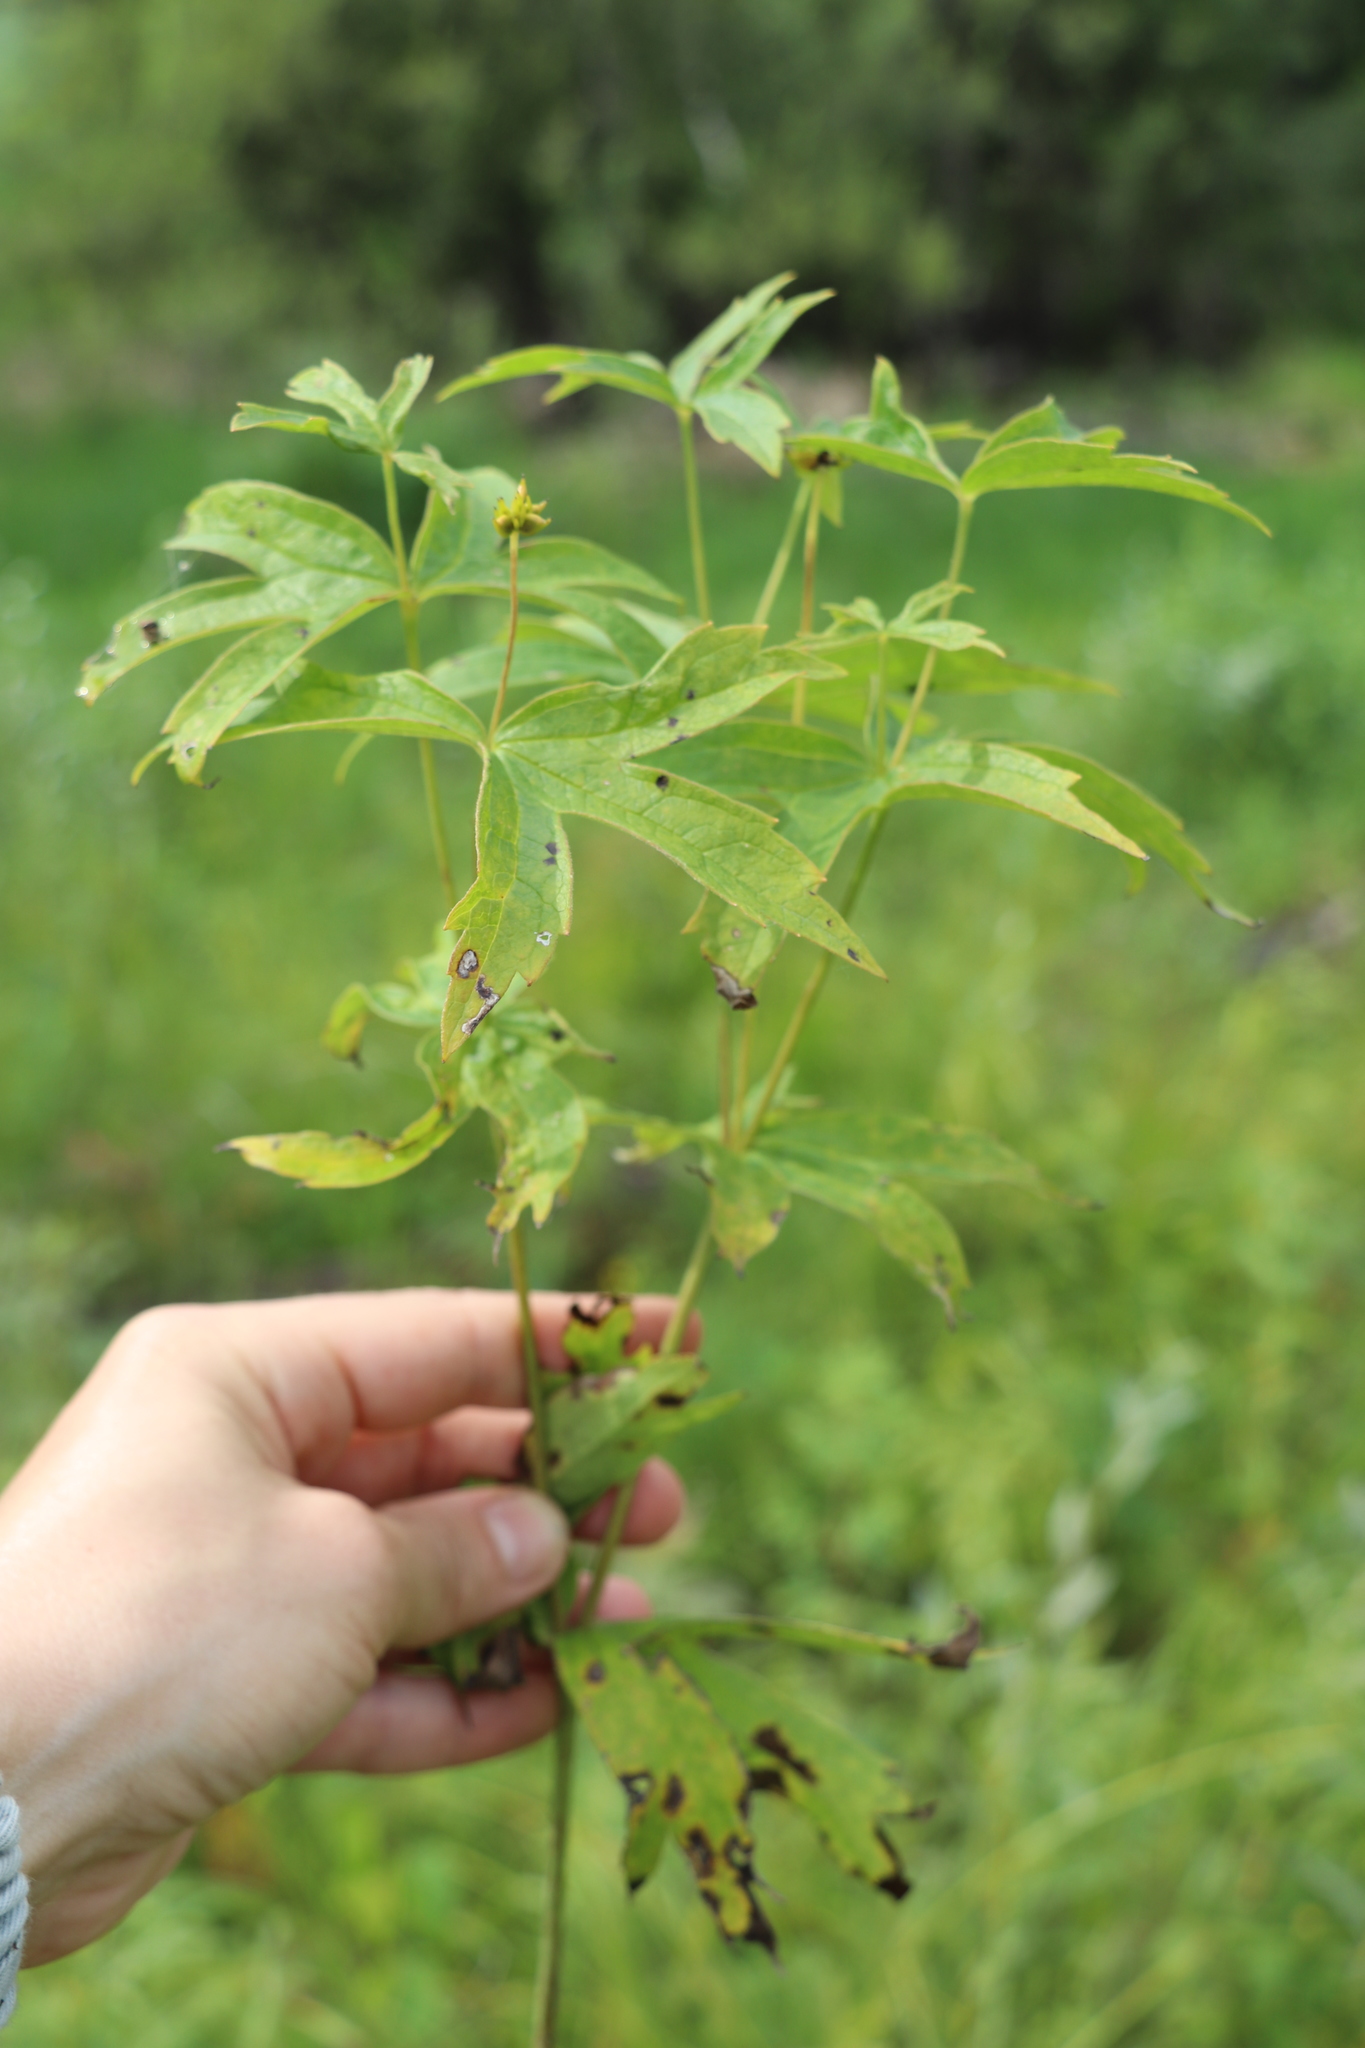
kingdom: Plantae
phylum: Tracheophyta
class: Magnoliopsida
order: Ranunculales
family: Ranunculaceae
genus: Anemonastrum
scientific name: Anemonastrum dichotomum
